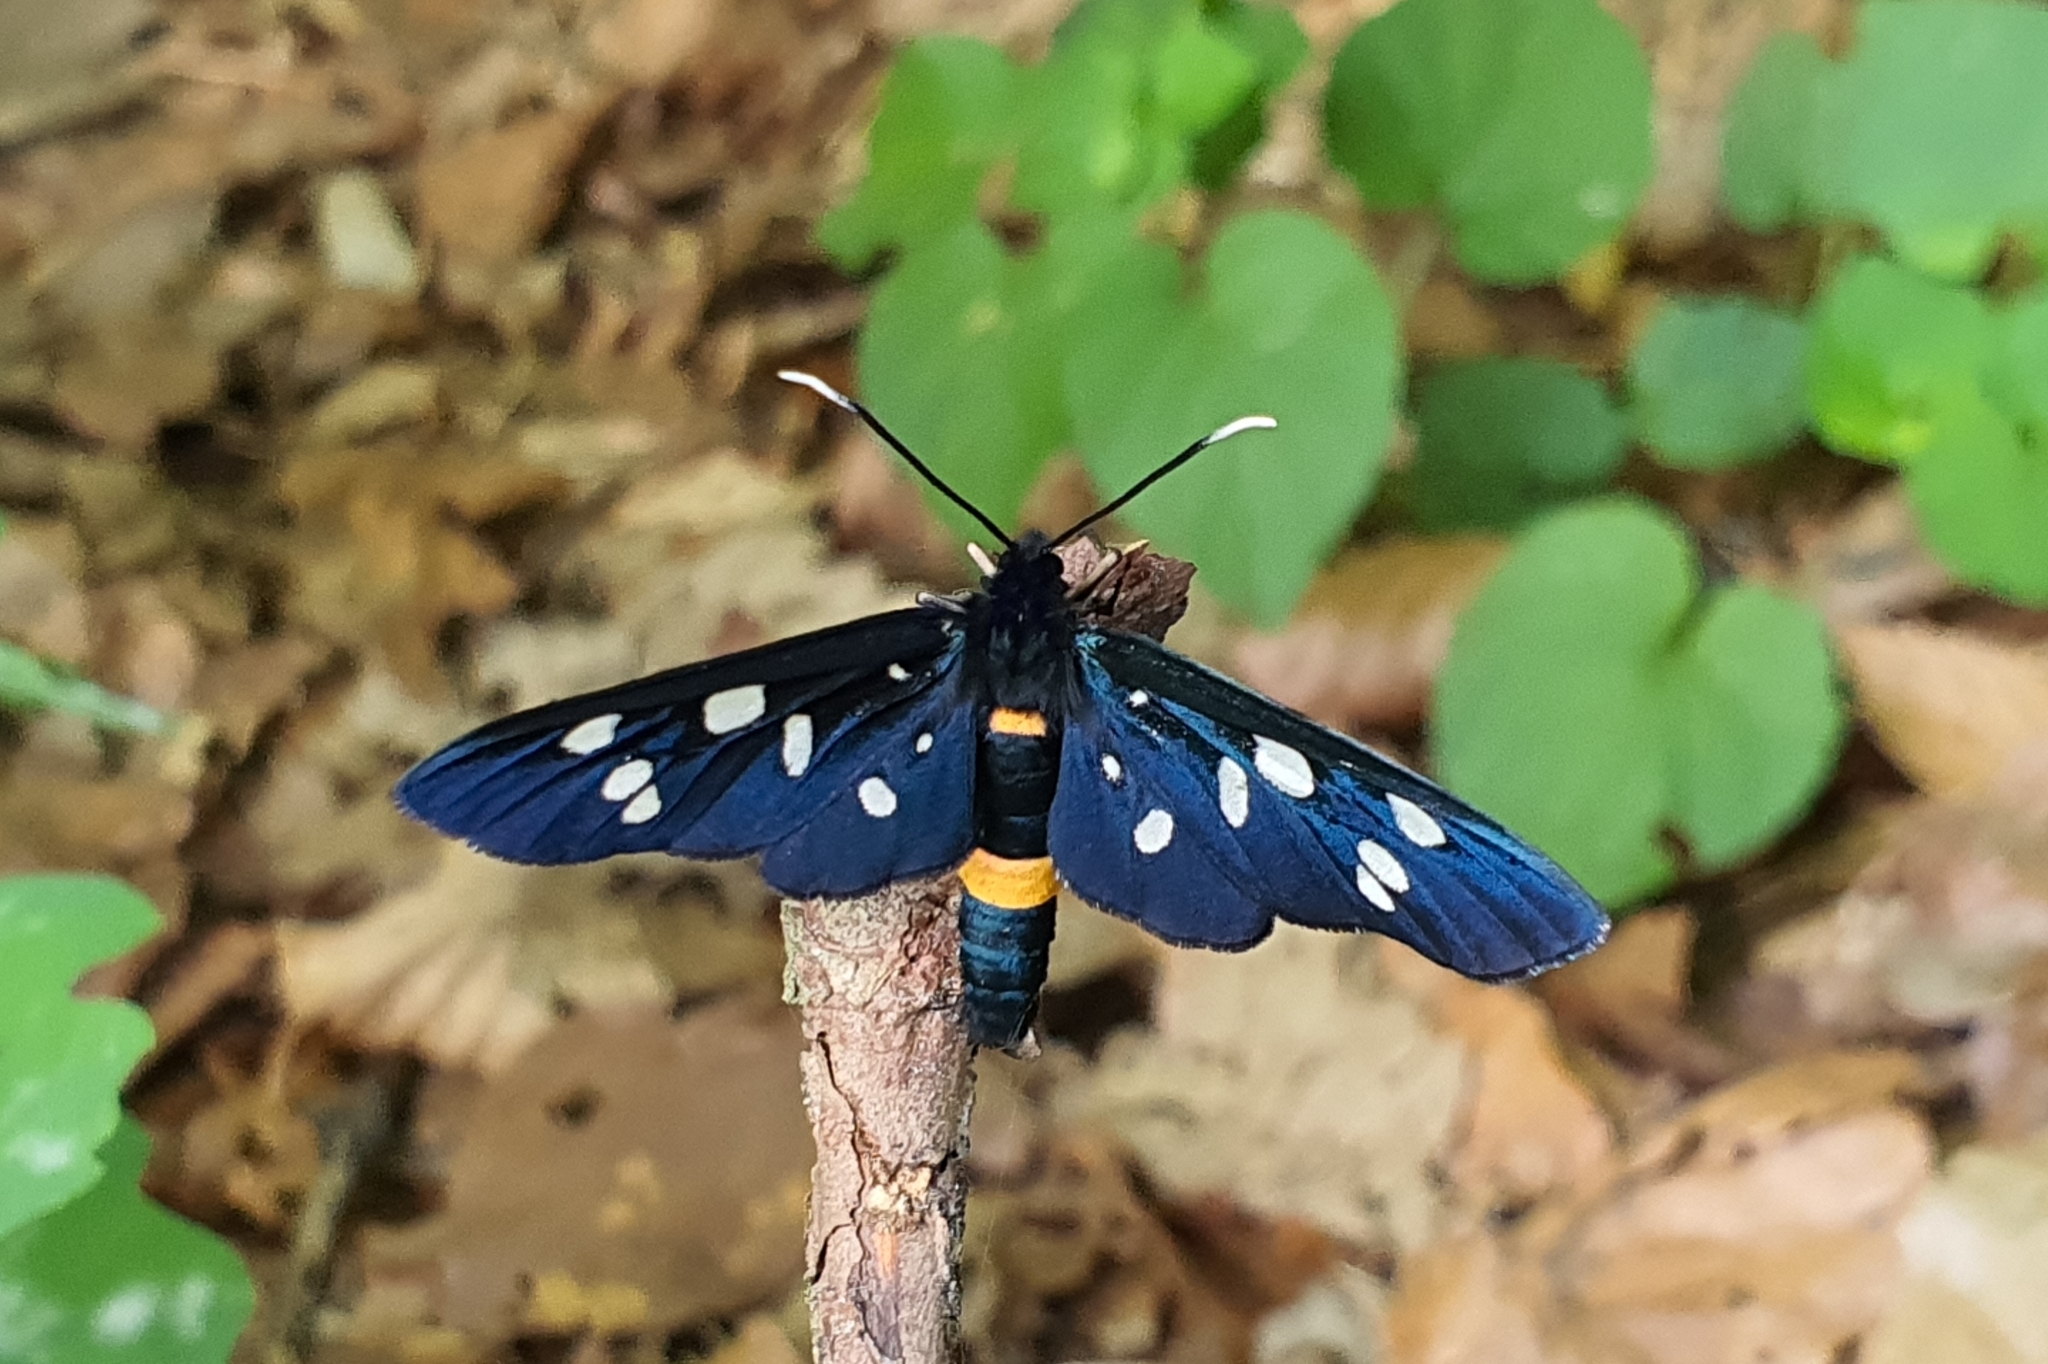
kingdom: Animalia
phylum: Arthropoda
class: Insecta
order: Lepidoptera
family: Erebidae
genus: Amata
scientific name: Amata phegea
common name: Nine-spotted
